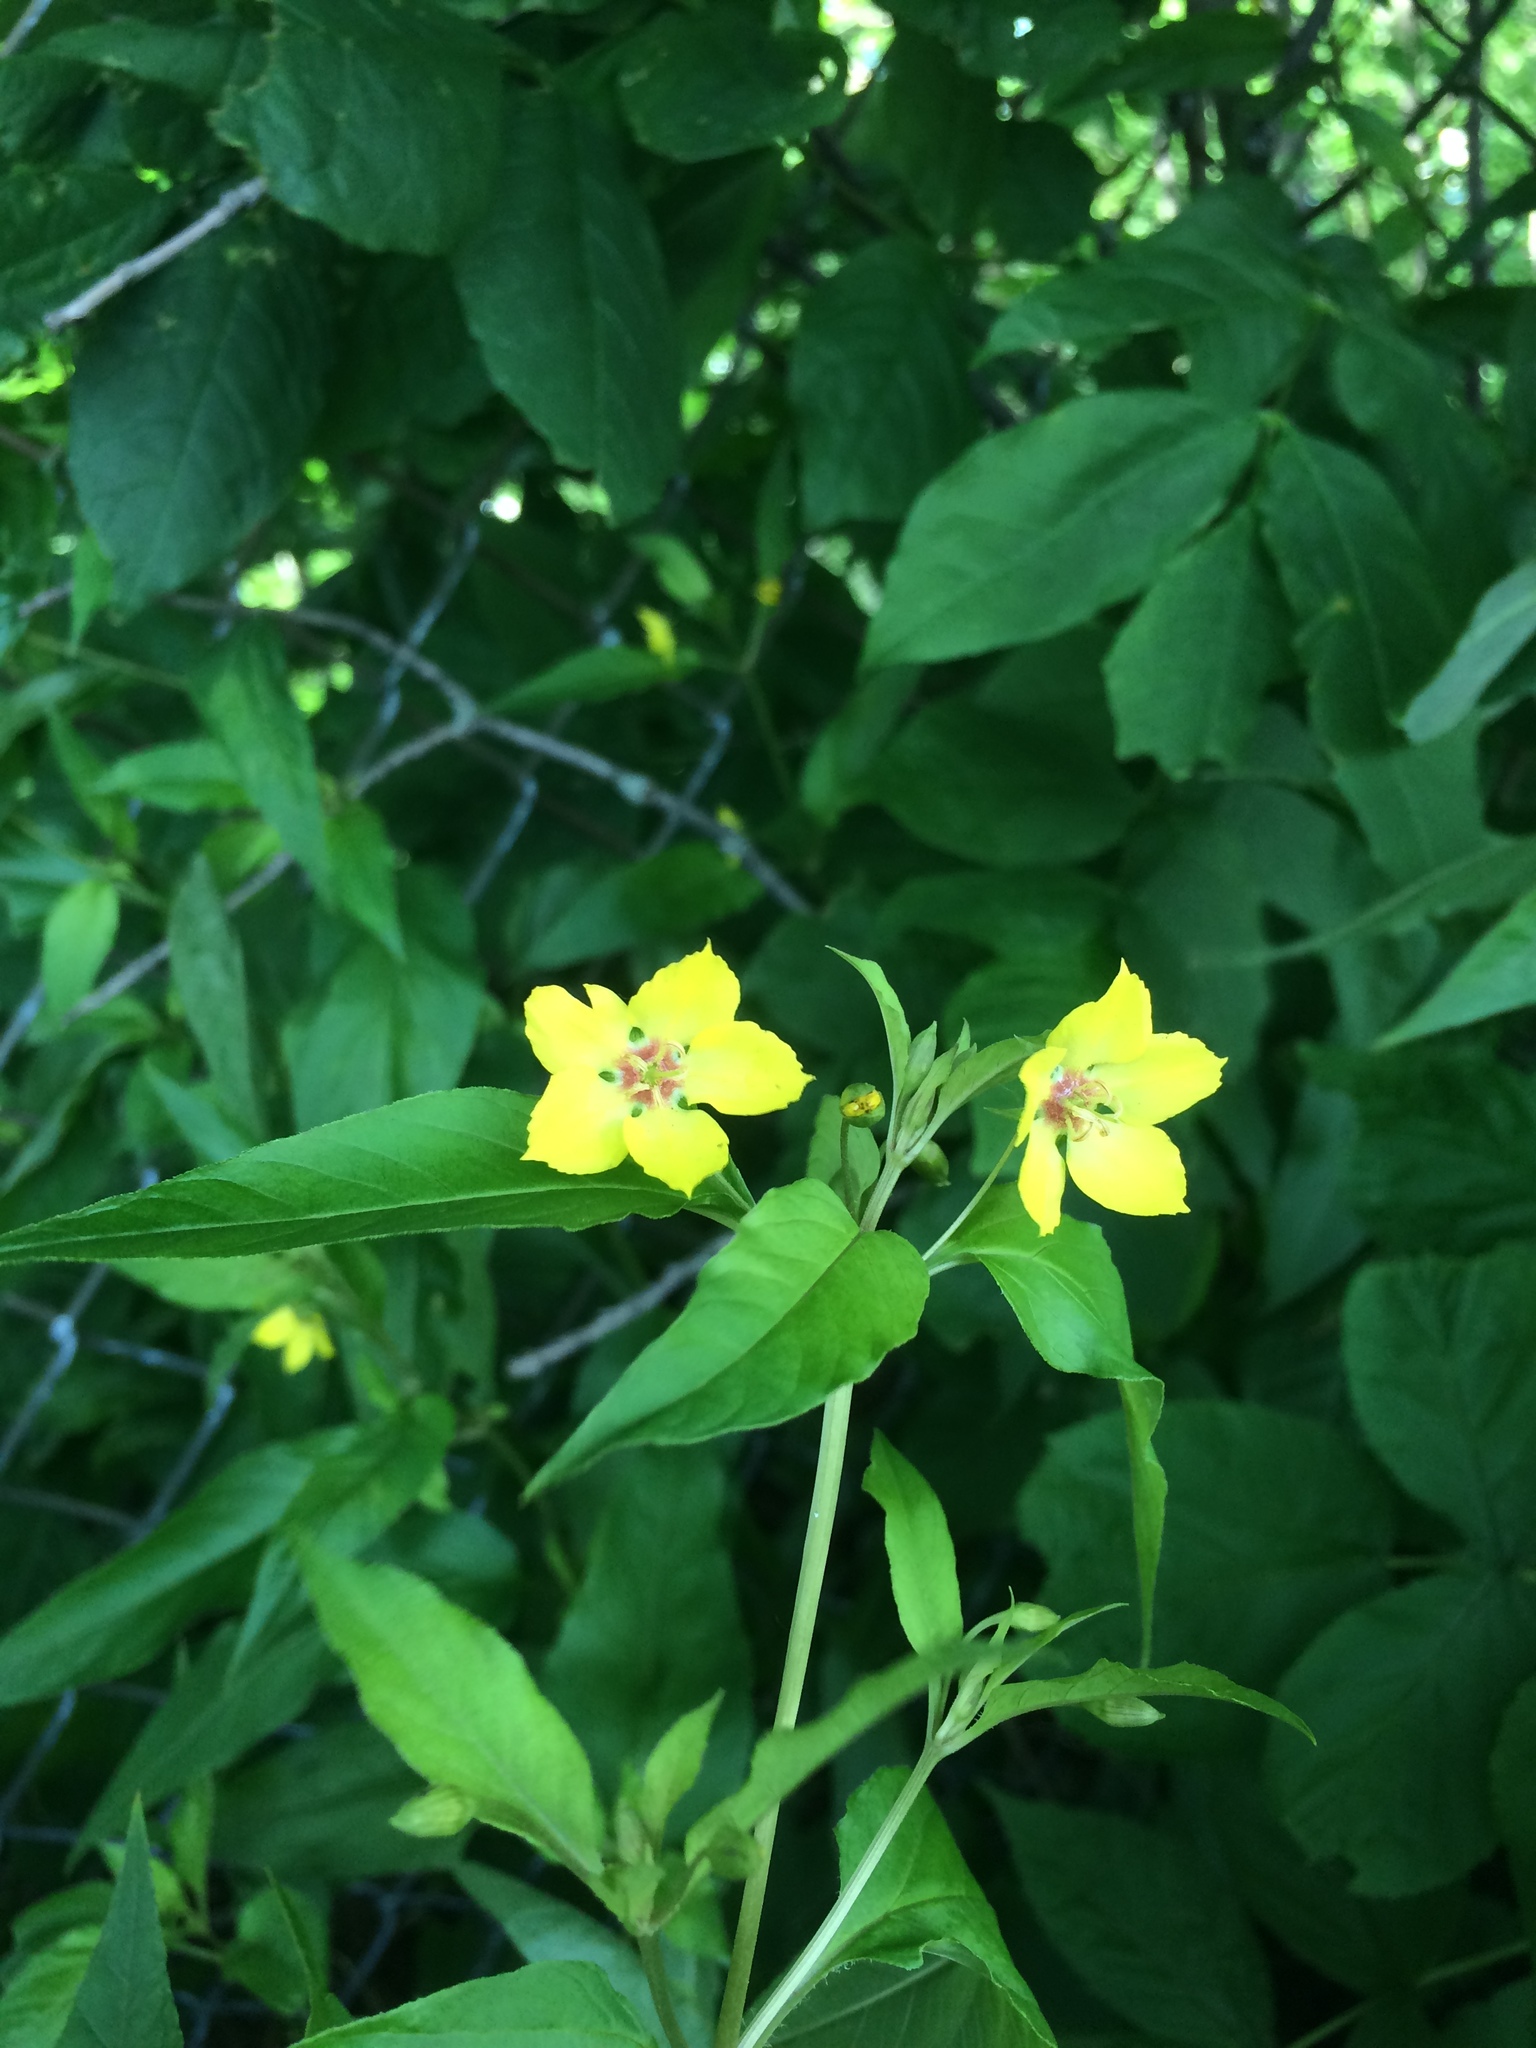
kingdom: Plantae
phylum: Tracheophyta
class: Magnoliopsida
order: Ericales
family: Primulaceae
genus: Lysimachia
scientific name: Lysimachia ciliata
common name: Fringed loosestrife
